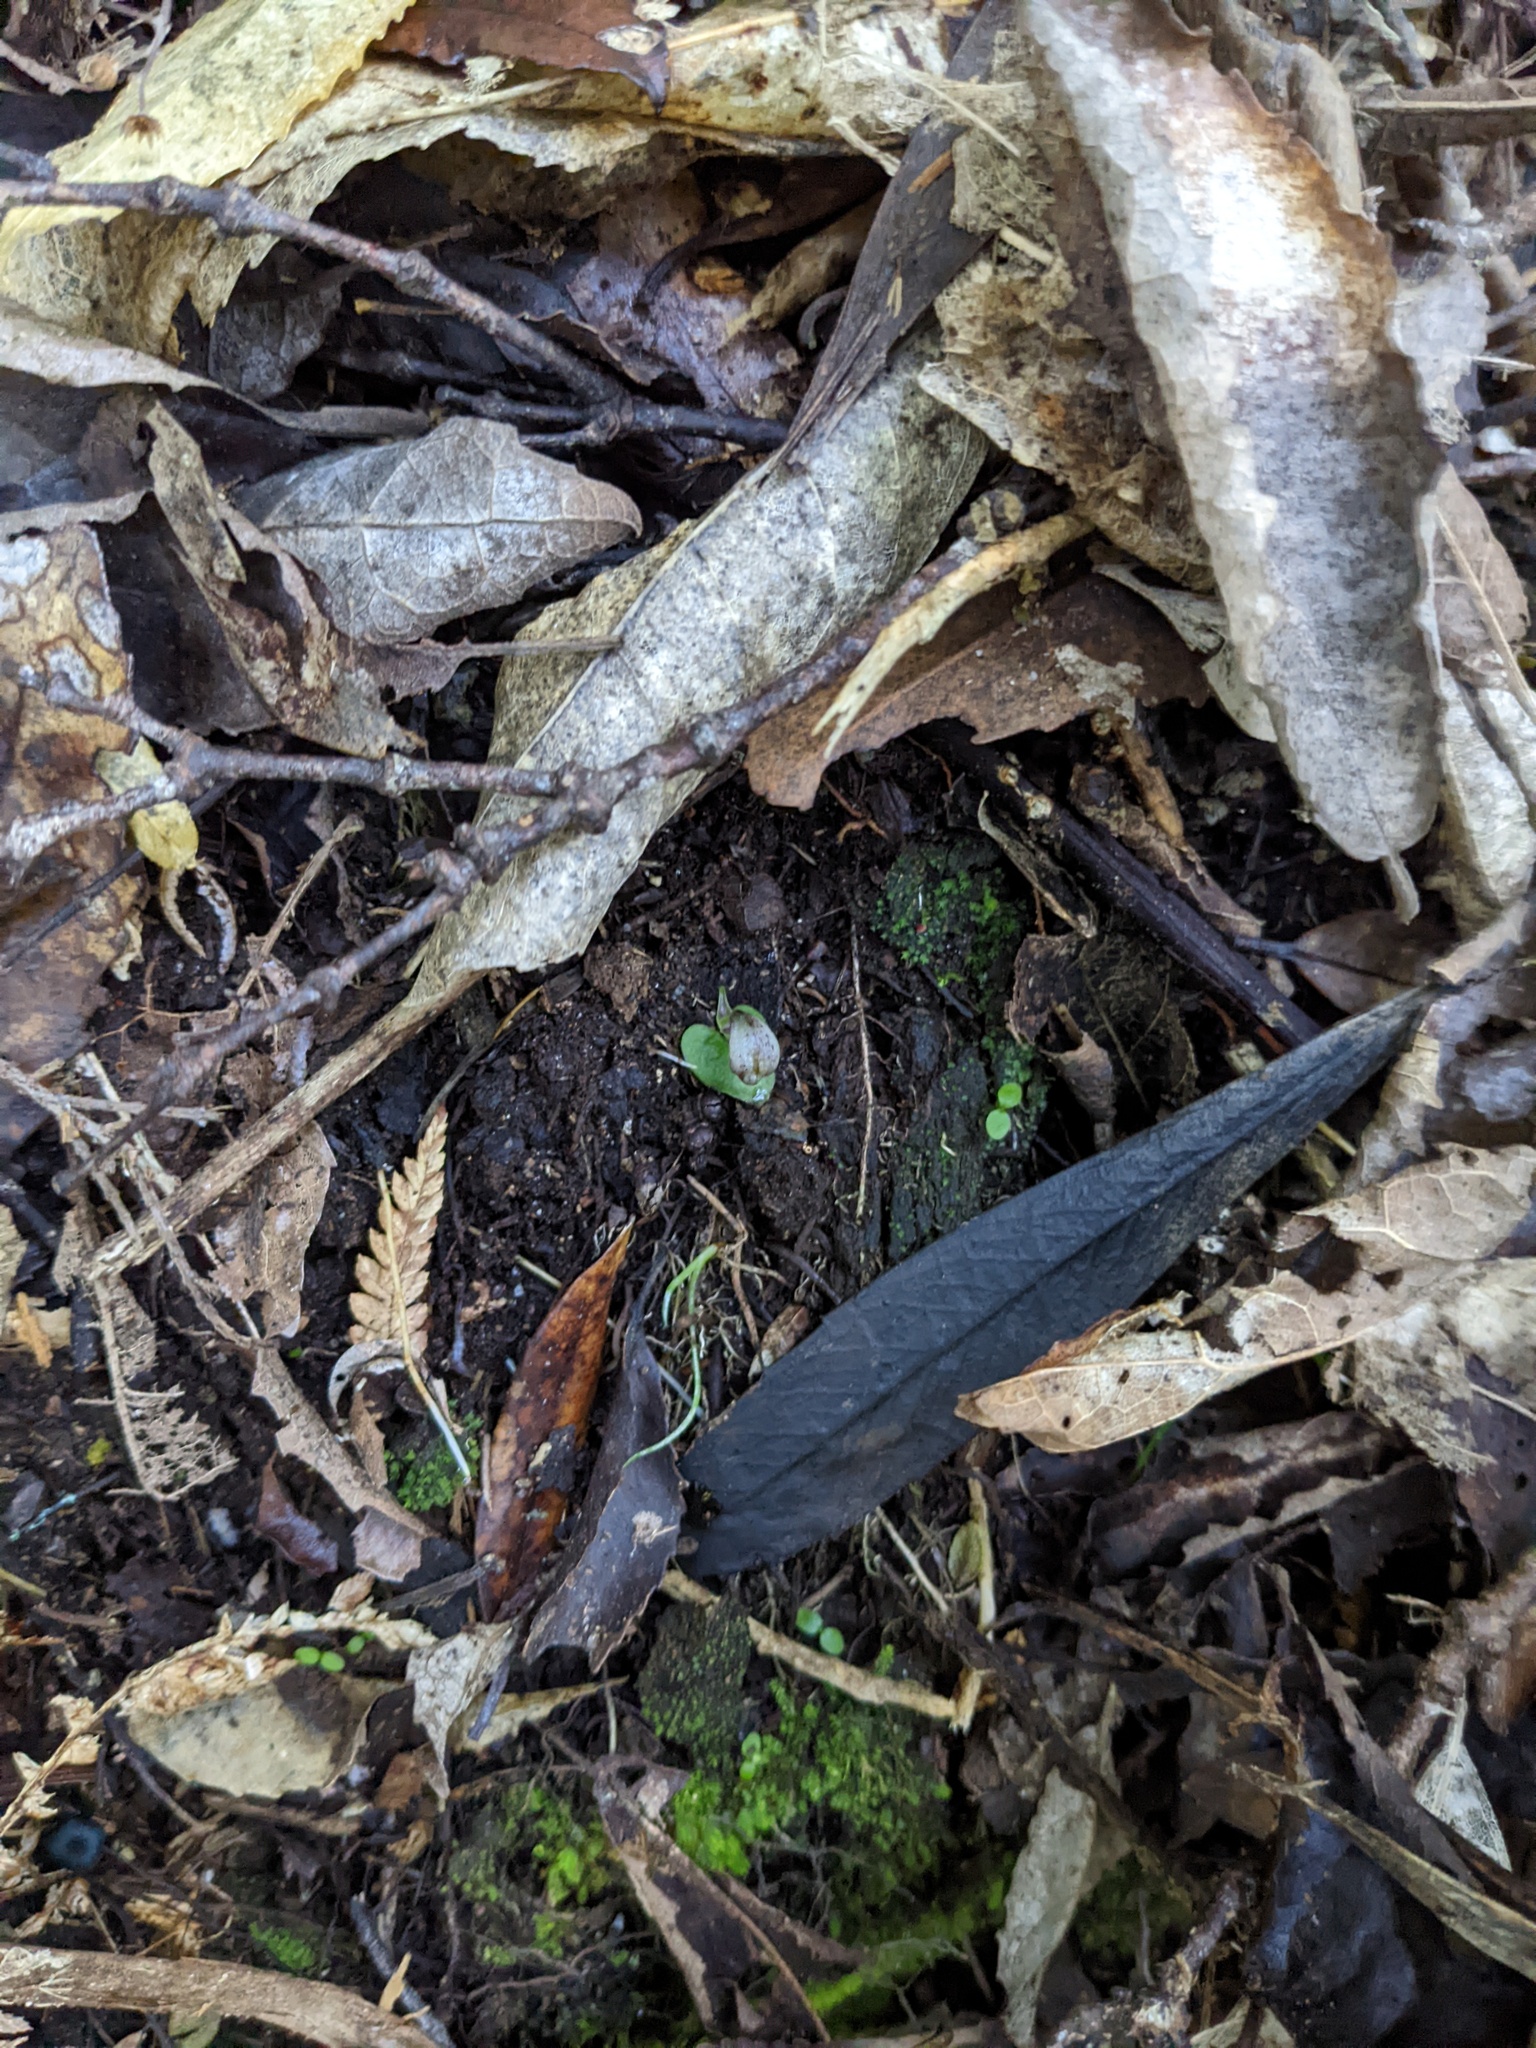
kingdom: Plantae
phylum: Tracheophyta
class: Liliopsida
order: Asparagales
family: Orchidaceae
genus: Corybas
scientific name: Corybas cheesemanii
